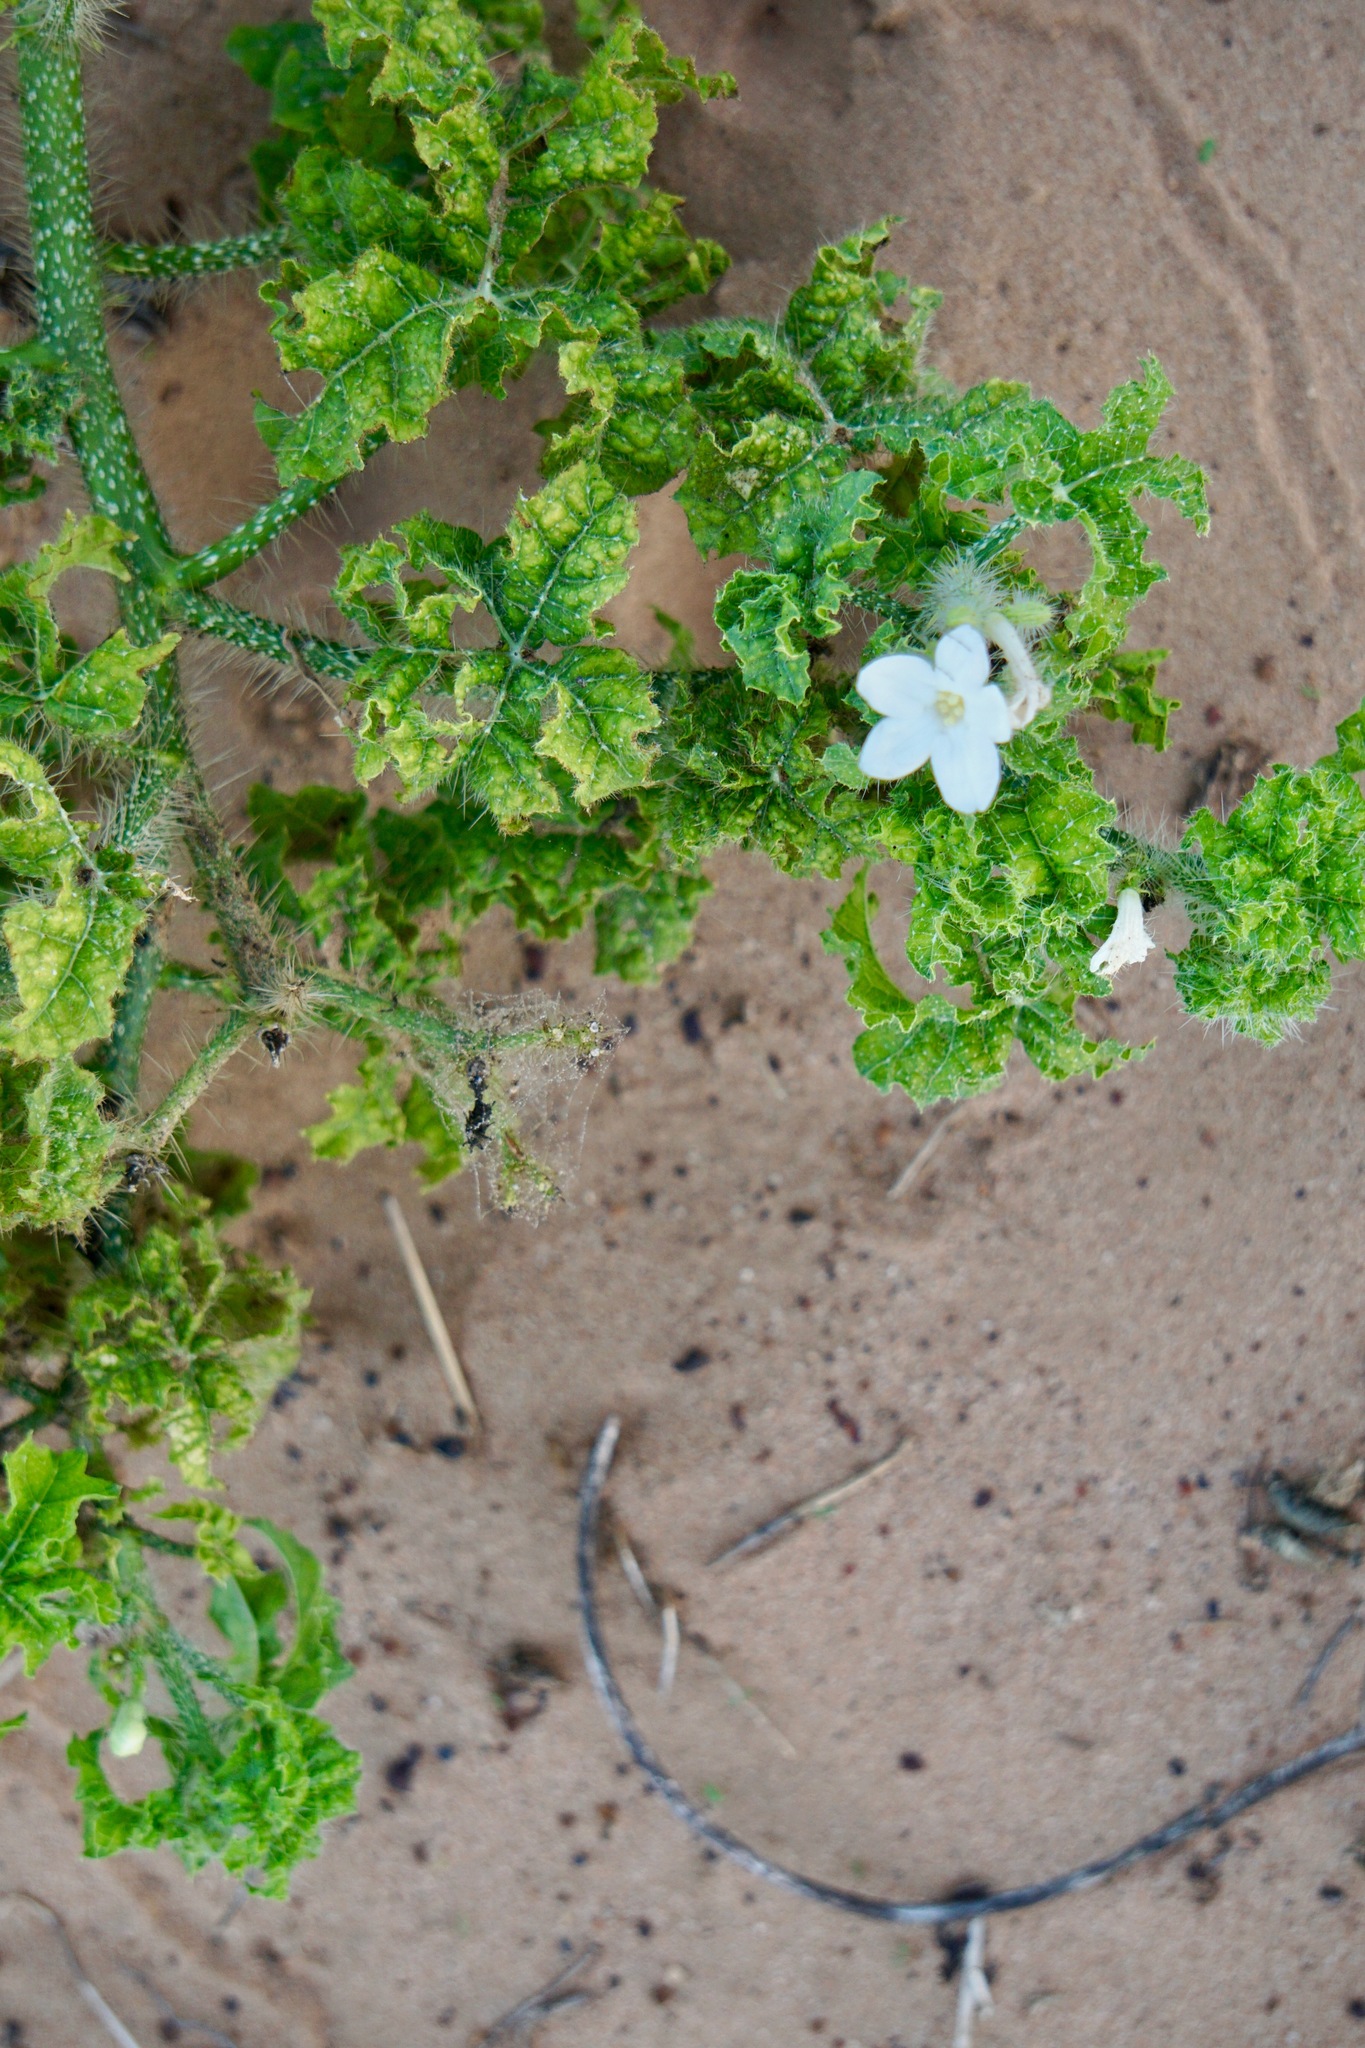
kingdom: Plantae
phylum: Tracheophyta
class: Magnoliopsida
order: Malpighiales
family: Euphorbiaceae
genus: Cnidoscolus
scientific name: Cnidoscolus texanus
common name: Texas bull-nettle
